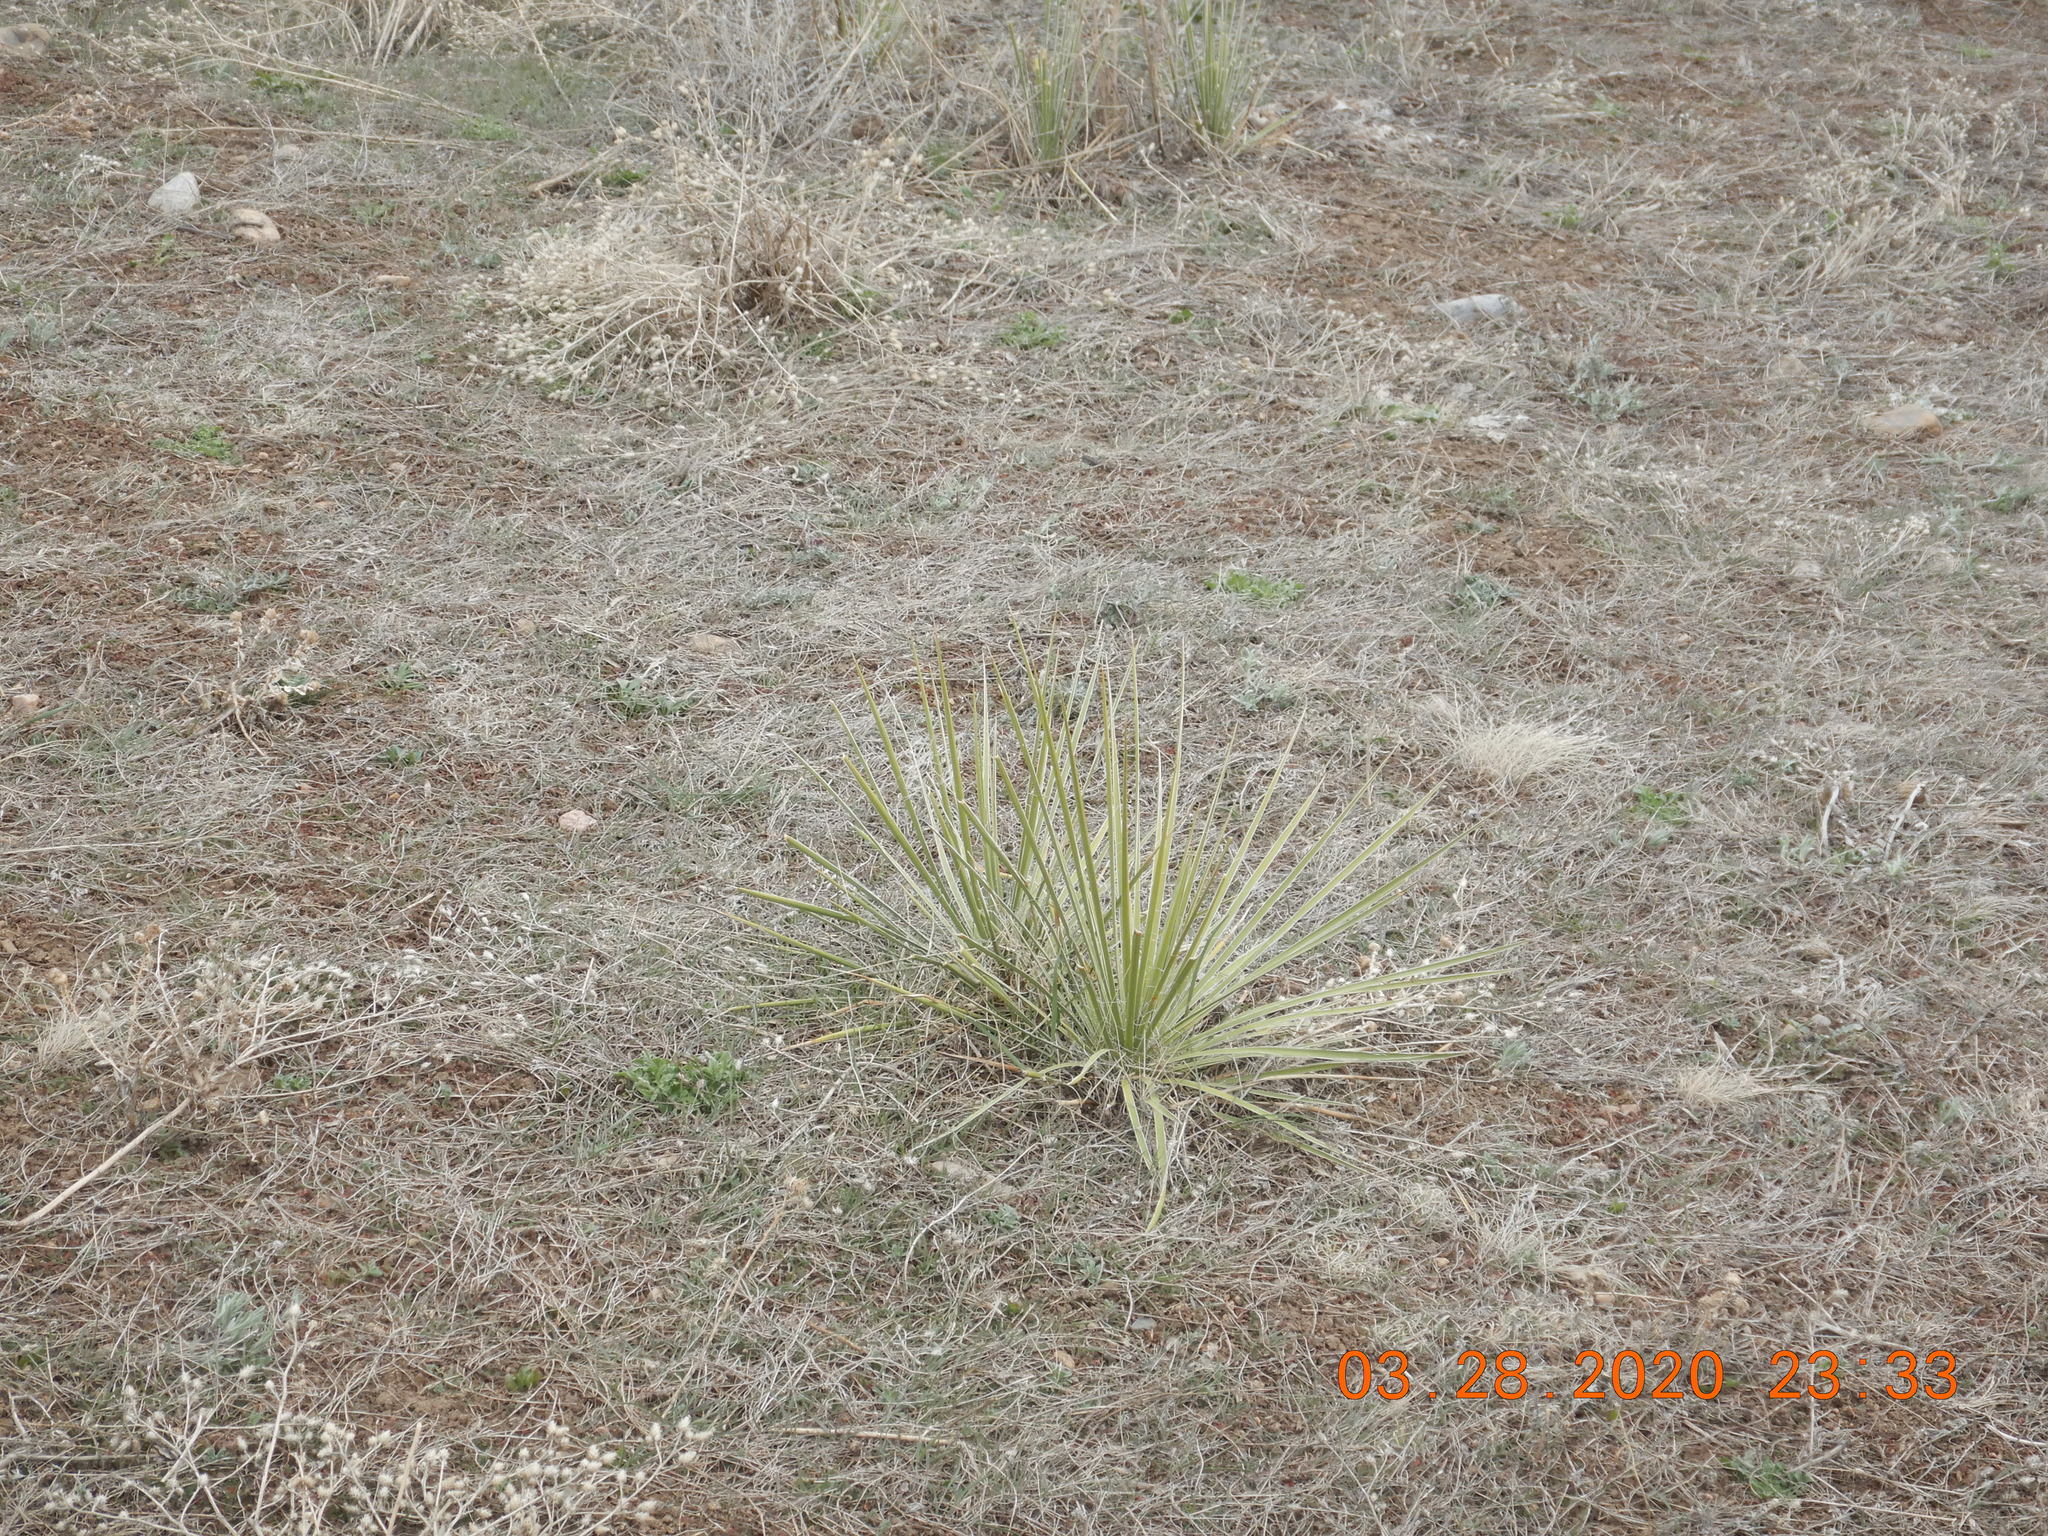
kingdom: Plantae
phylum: Tracheophyta
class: Liliopsida
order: Asparagales
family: Asparagaceae
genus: Yucca
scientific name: Yucca glauca
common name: Great plains yucca
